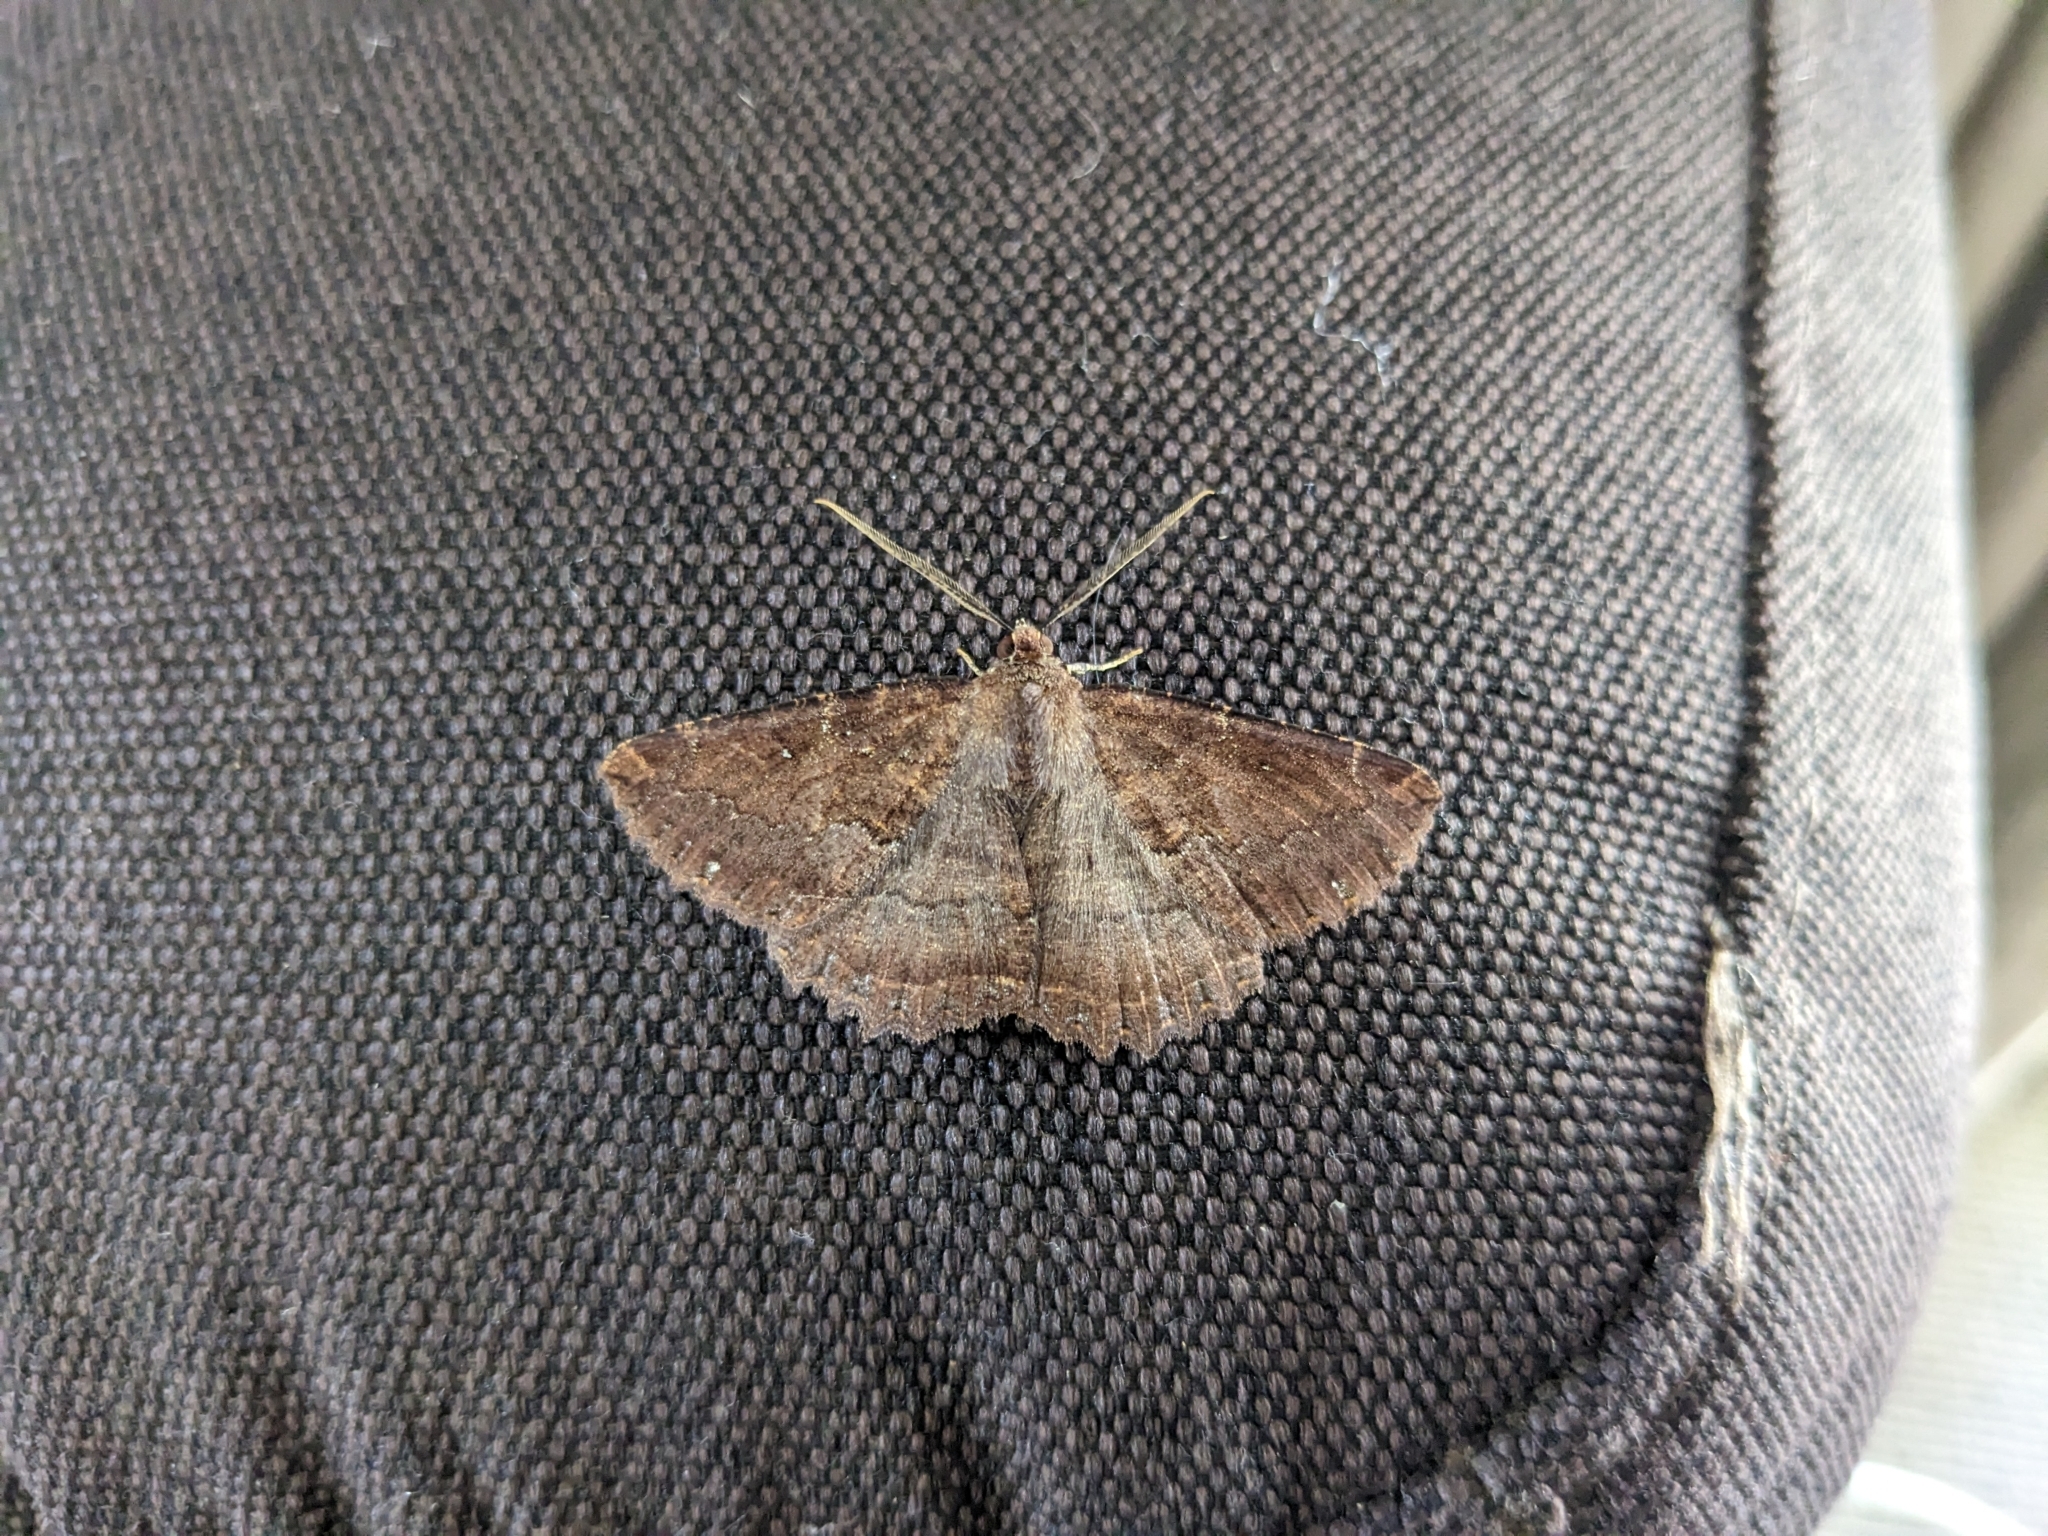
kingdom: Animalia
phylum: Arthropoda
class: Insecta
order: Lepidoptera
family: Geometridae
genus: Gellonia
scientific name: Gellonia dejectaria
